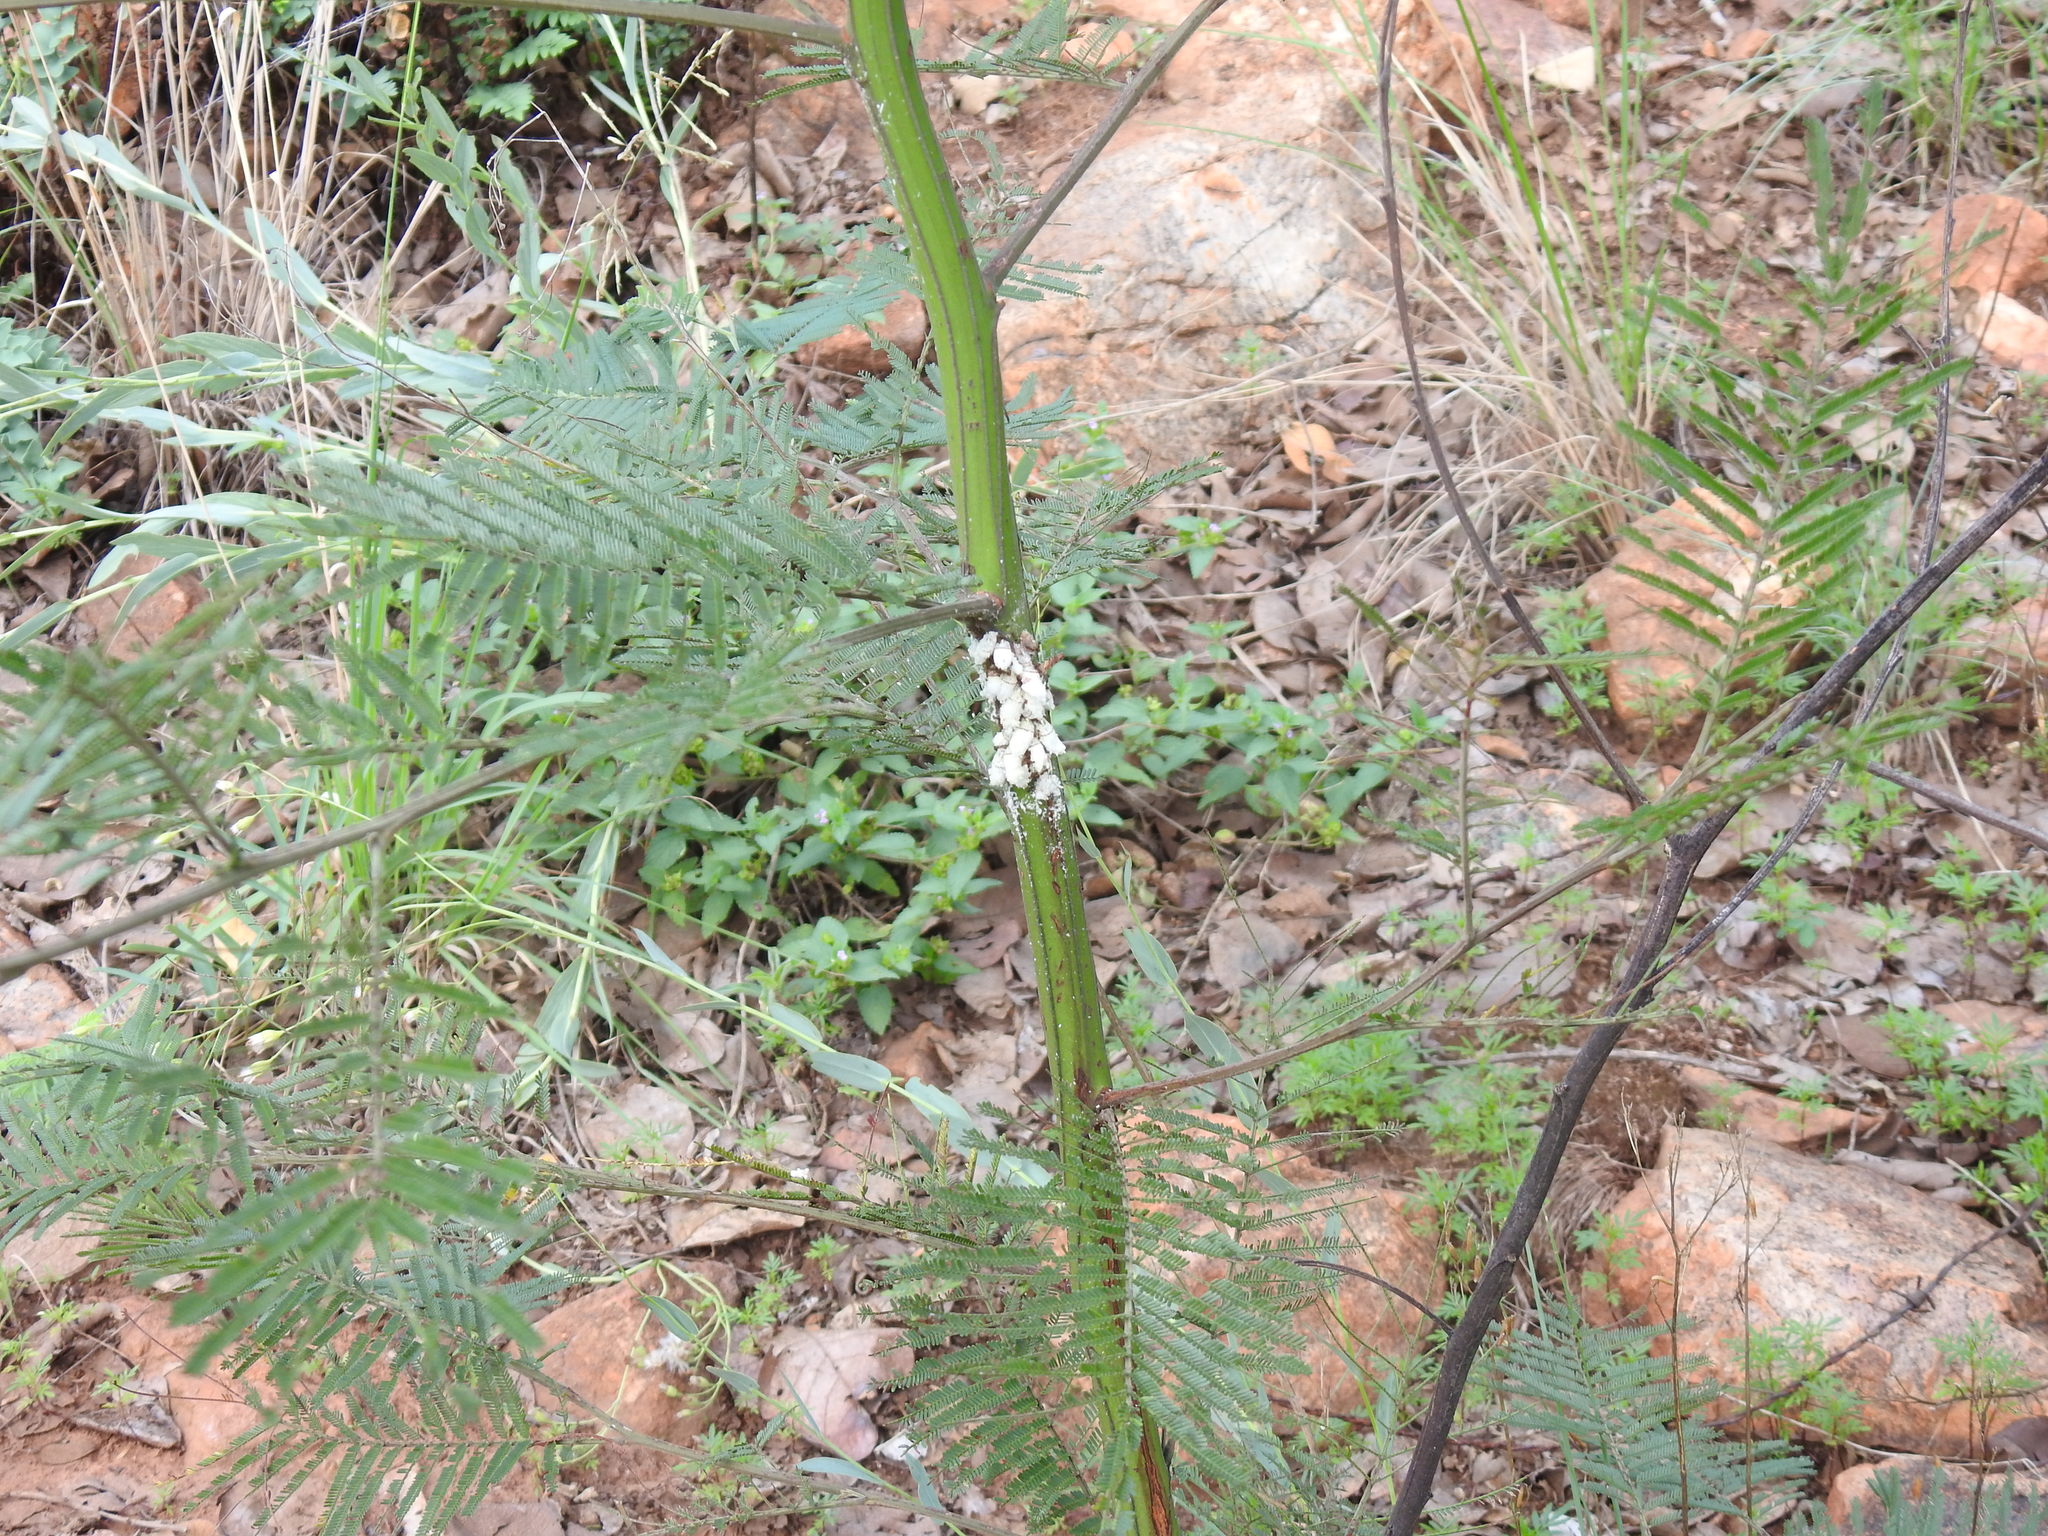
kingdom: Plantae
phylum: Tracheophyta
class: Magnoliopsida
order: Fabales
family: Fabaceae
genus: Acacia
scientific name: Acacia mearnsii
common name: Black wattle
